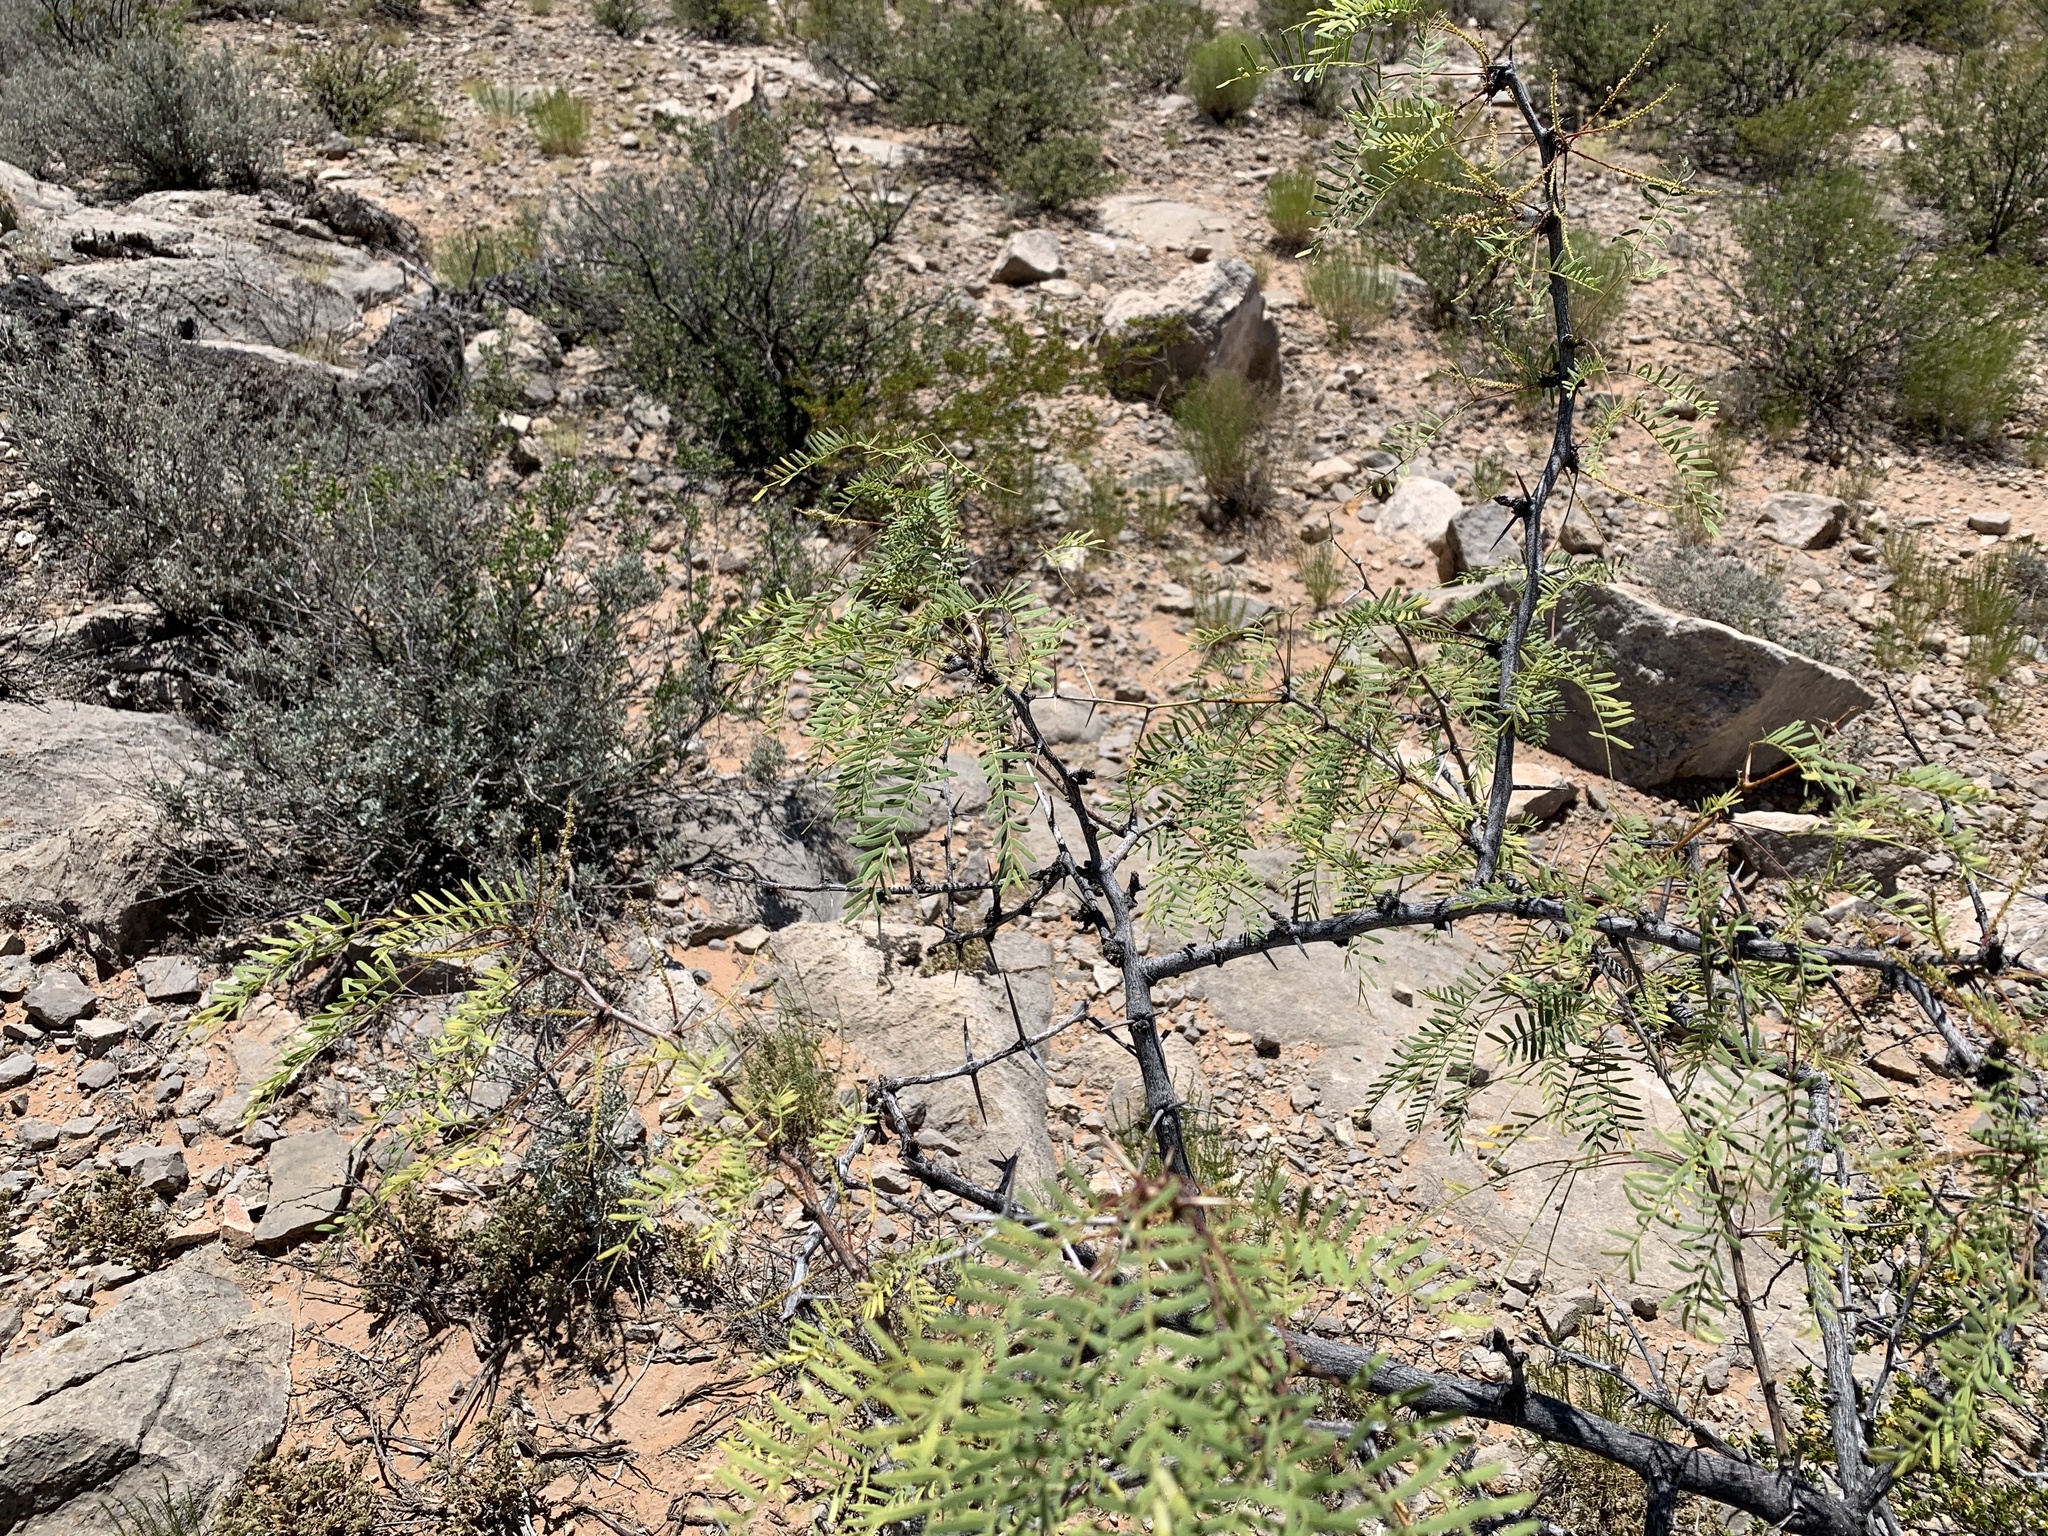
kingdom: Plantae
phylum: Tracheophyta
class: Magnoliopsida
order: Fabales
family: Fabaceae
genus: Prosopis
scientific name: Prosopis glandulosa
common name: Honey mesquite
